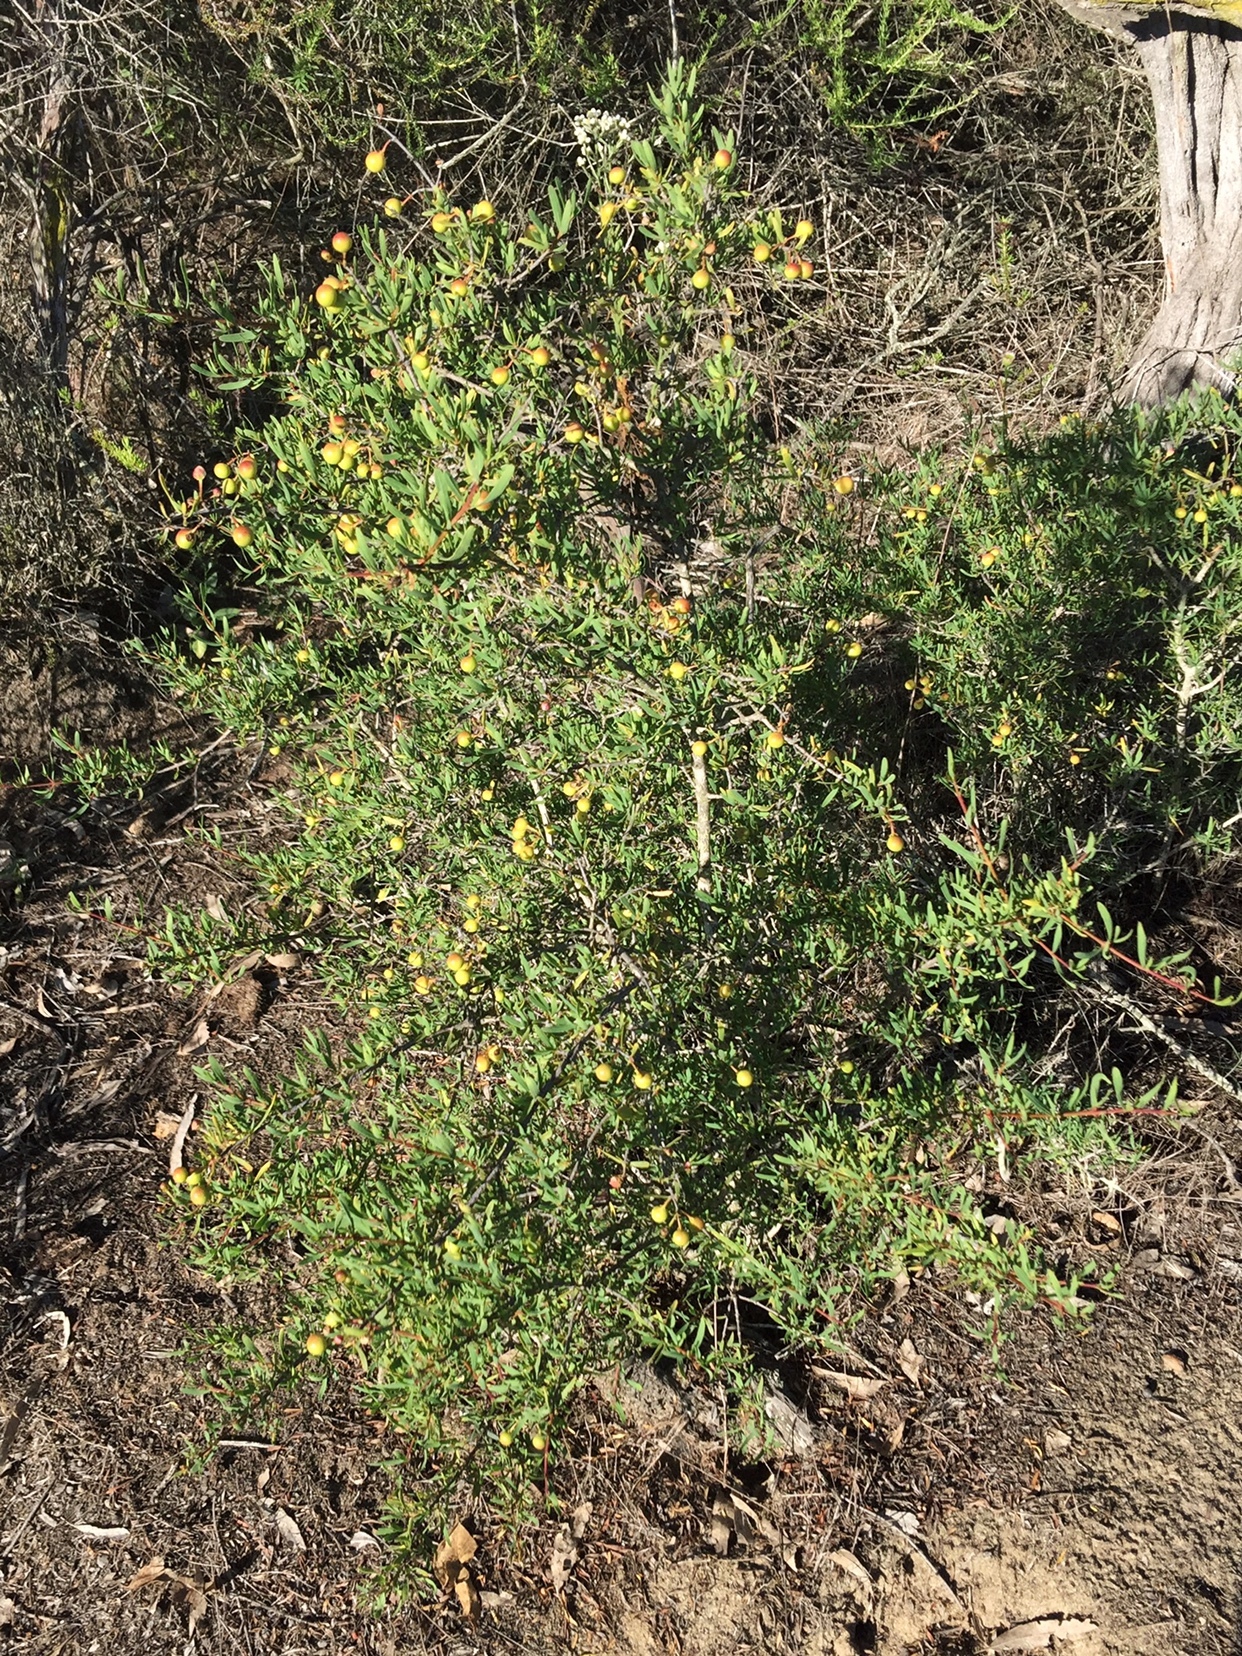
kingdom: Plantae
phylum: Tracheophyta
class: Magnoliopsida
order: Sapindales
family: Rutaceae
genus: Cneoridium
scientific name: Cneoridium dumosum
